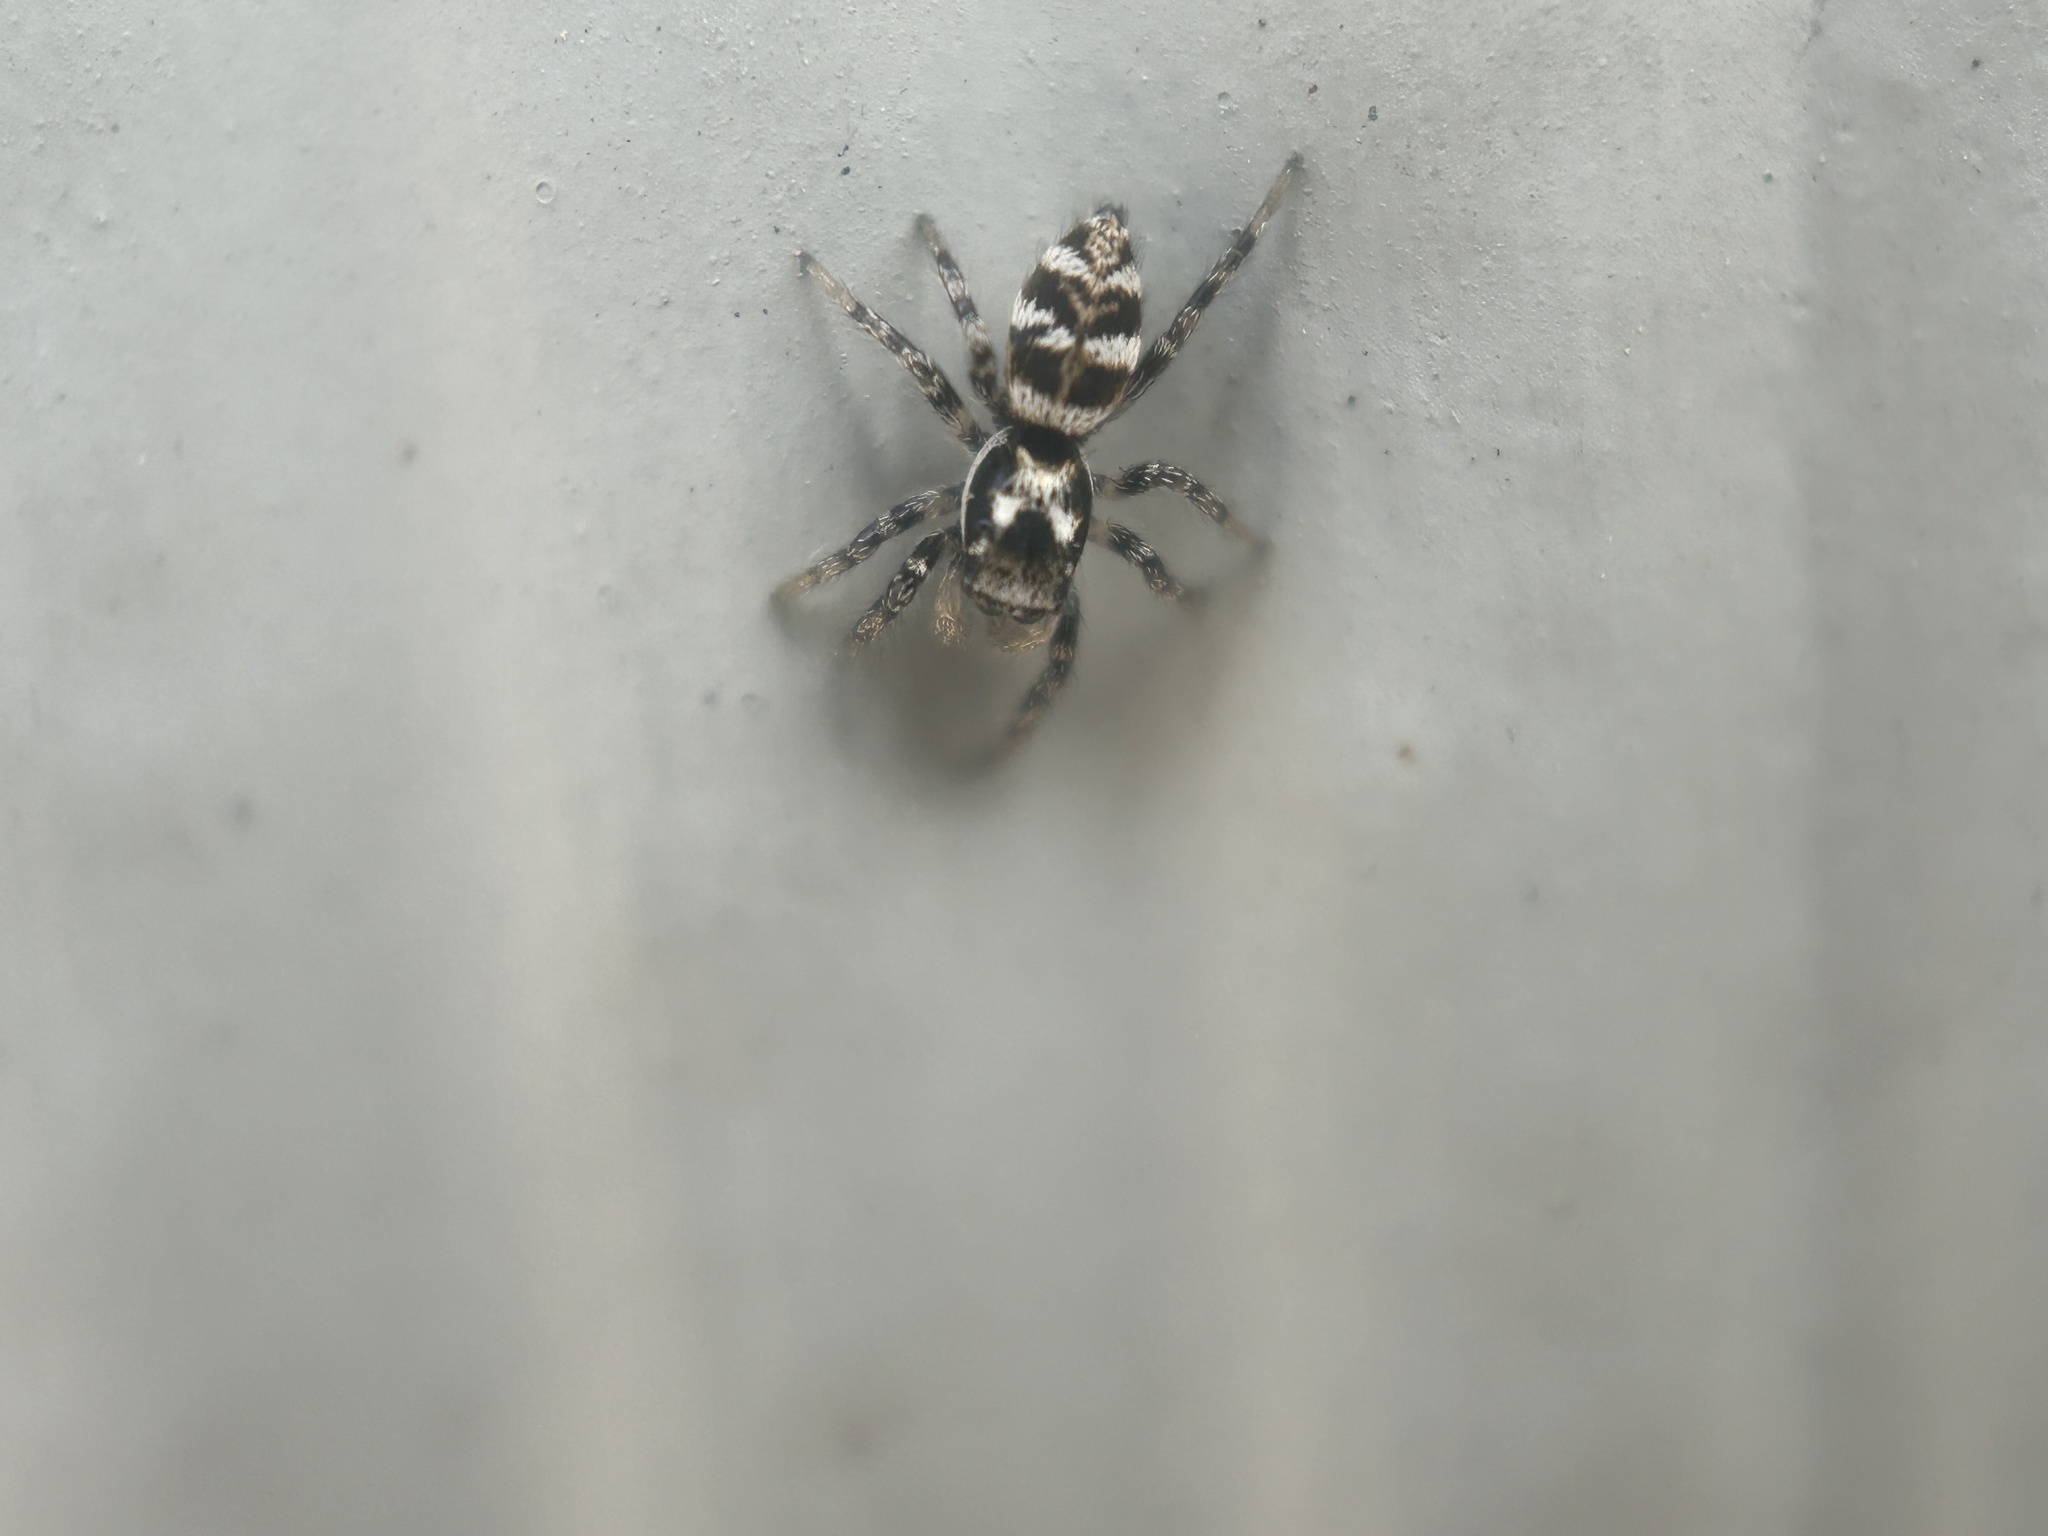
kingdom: Animalia
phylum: Arthropoda
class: Arachnida
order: Araneae
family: Salticidae
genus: Salticus
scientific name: Salticus scenicus
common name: Zebra jumper
